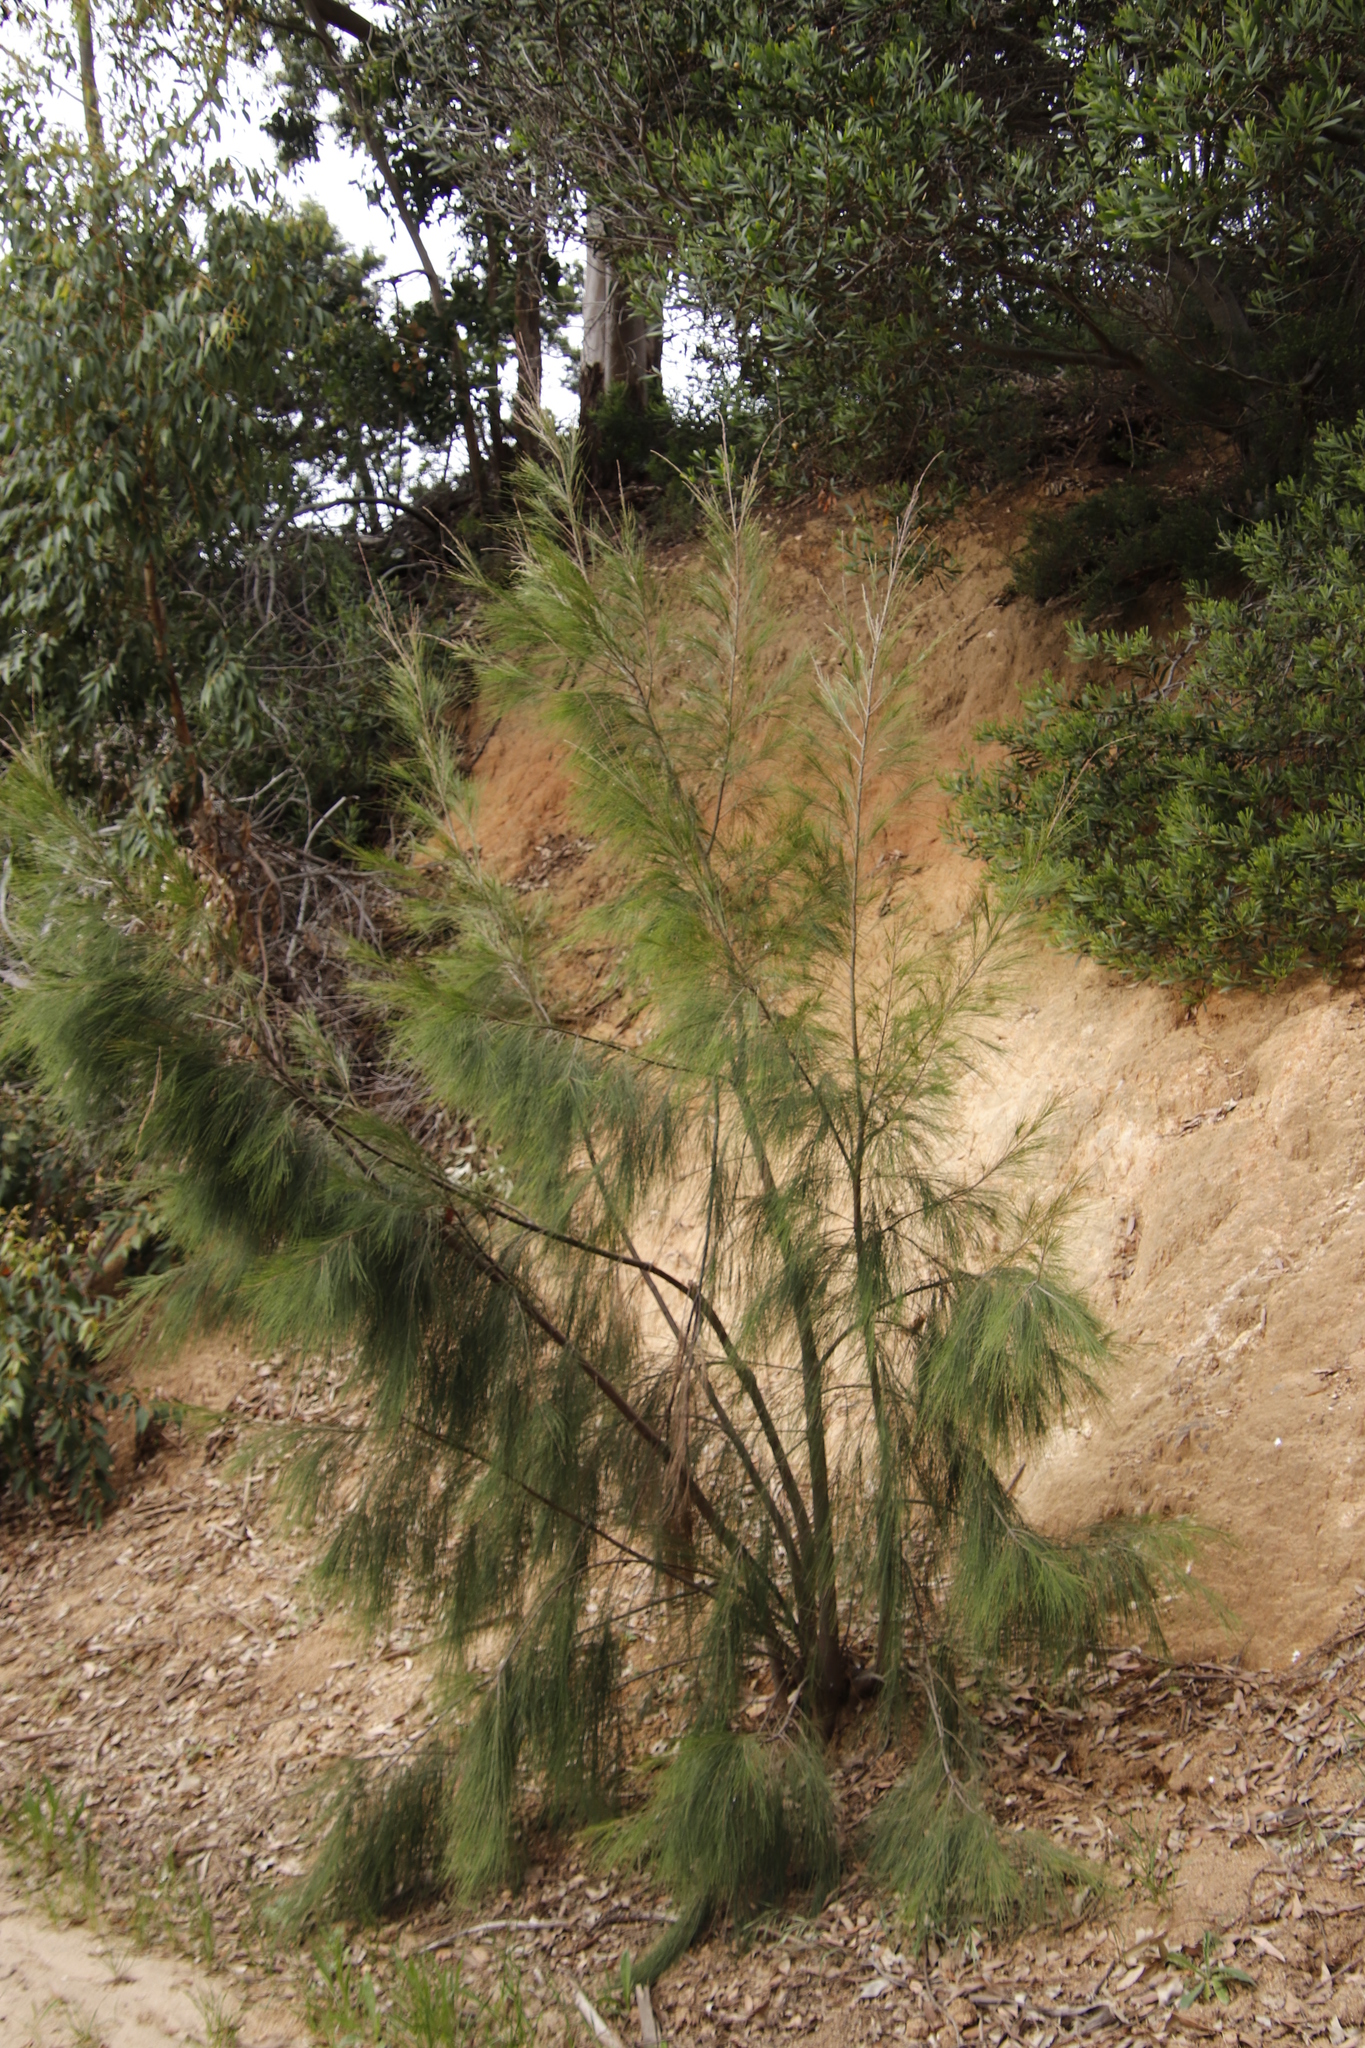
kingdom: Plantae
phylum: Tracheophyta
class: Magnoliopsida
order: Fagales
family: Casuarinaceae
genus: Casuarina
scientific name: Casuarina cunninghamiana
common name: River sheoak
